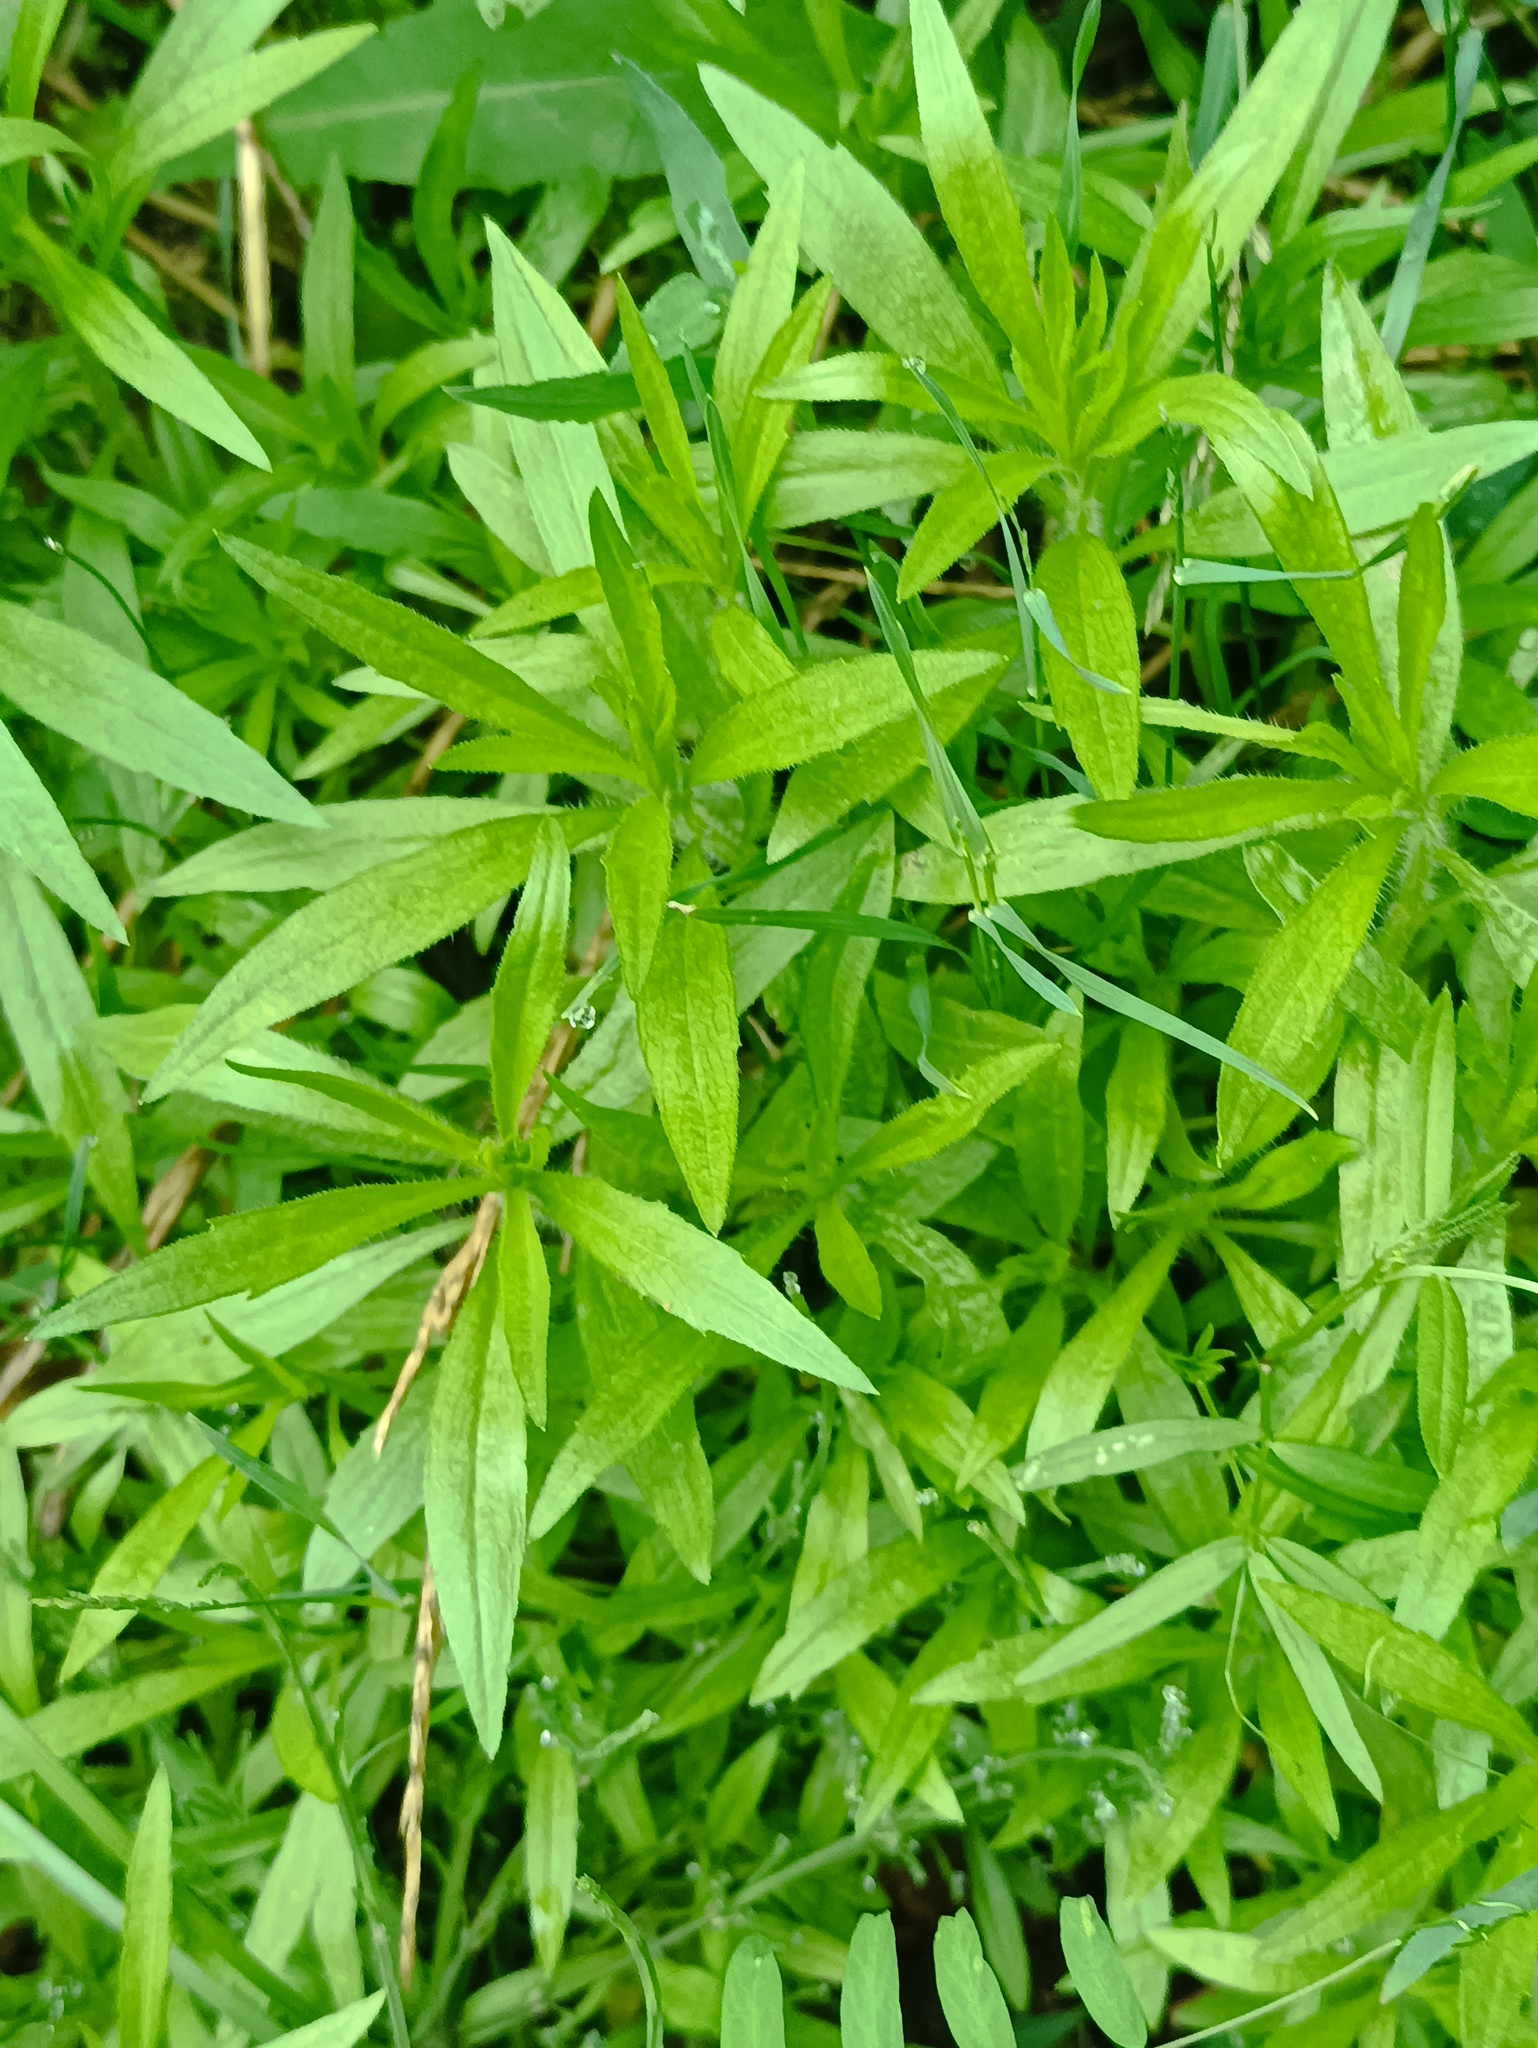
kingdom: Plantae
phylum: Tracheophyta
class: Magnoliopsida
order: Asterales
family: Asteraceae
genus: Erigeron
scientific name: Erigeron canadensis
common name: Canadian fleabane
